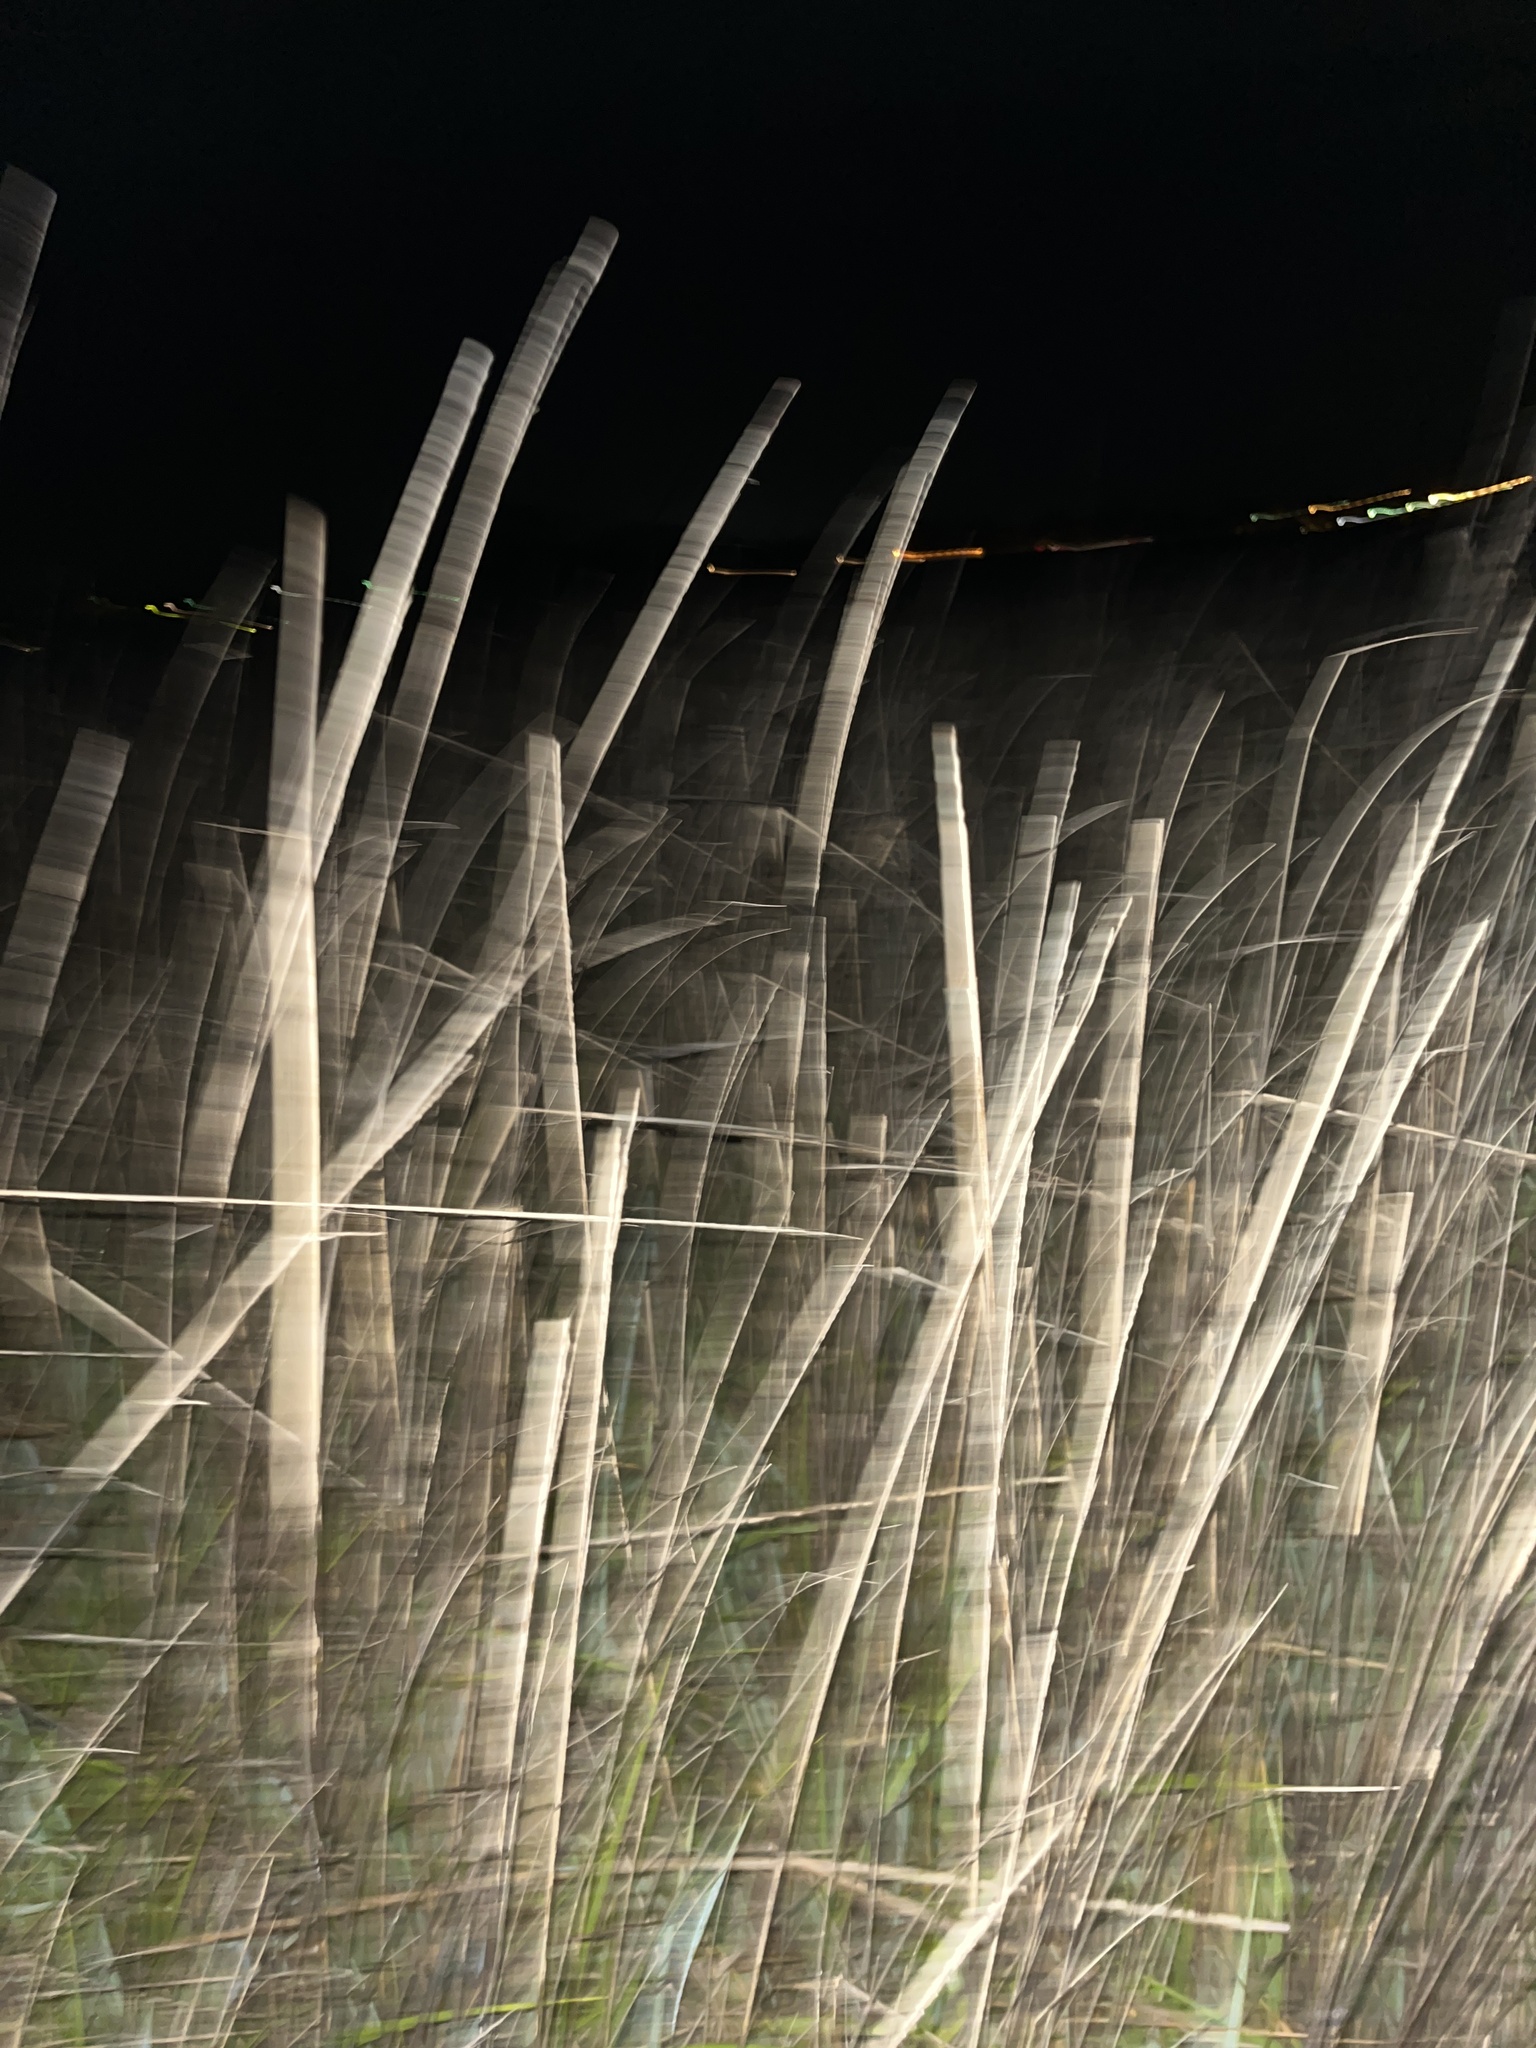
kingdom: Plantae
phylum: Tracheophyta
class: Liliopsida
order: Poales
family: Poaceae
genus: Sporobolus
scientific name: Sporobolus alterniflorus
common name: Atlantic cordgrass
